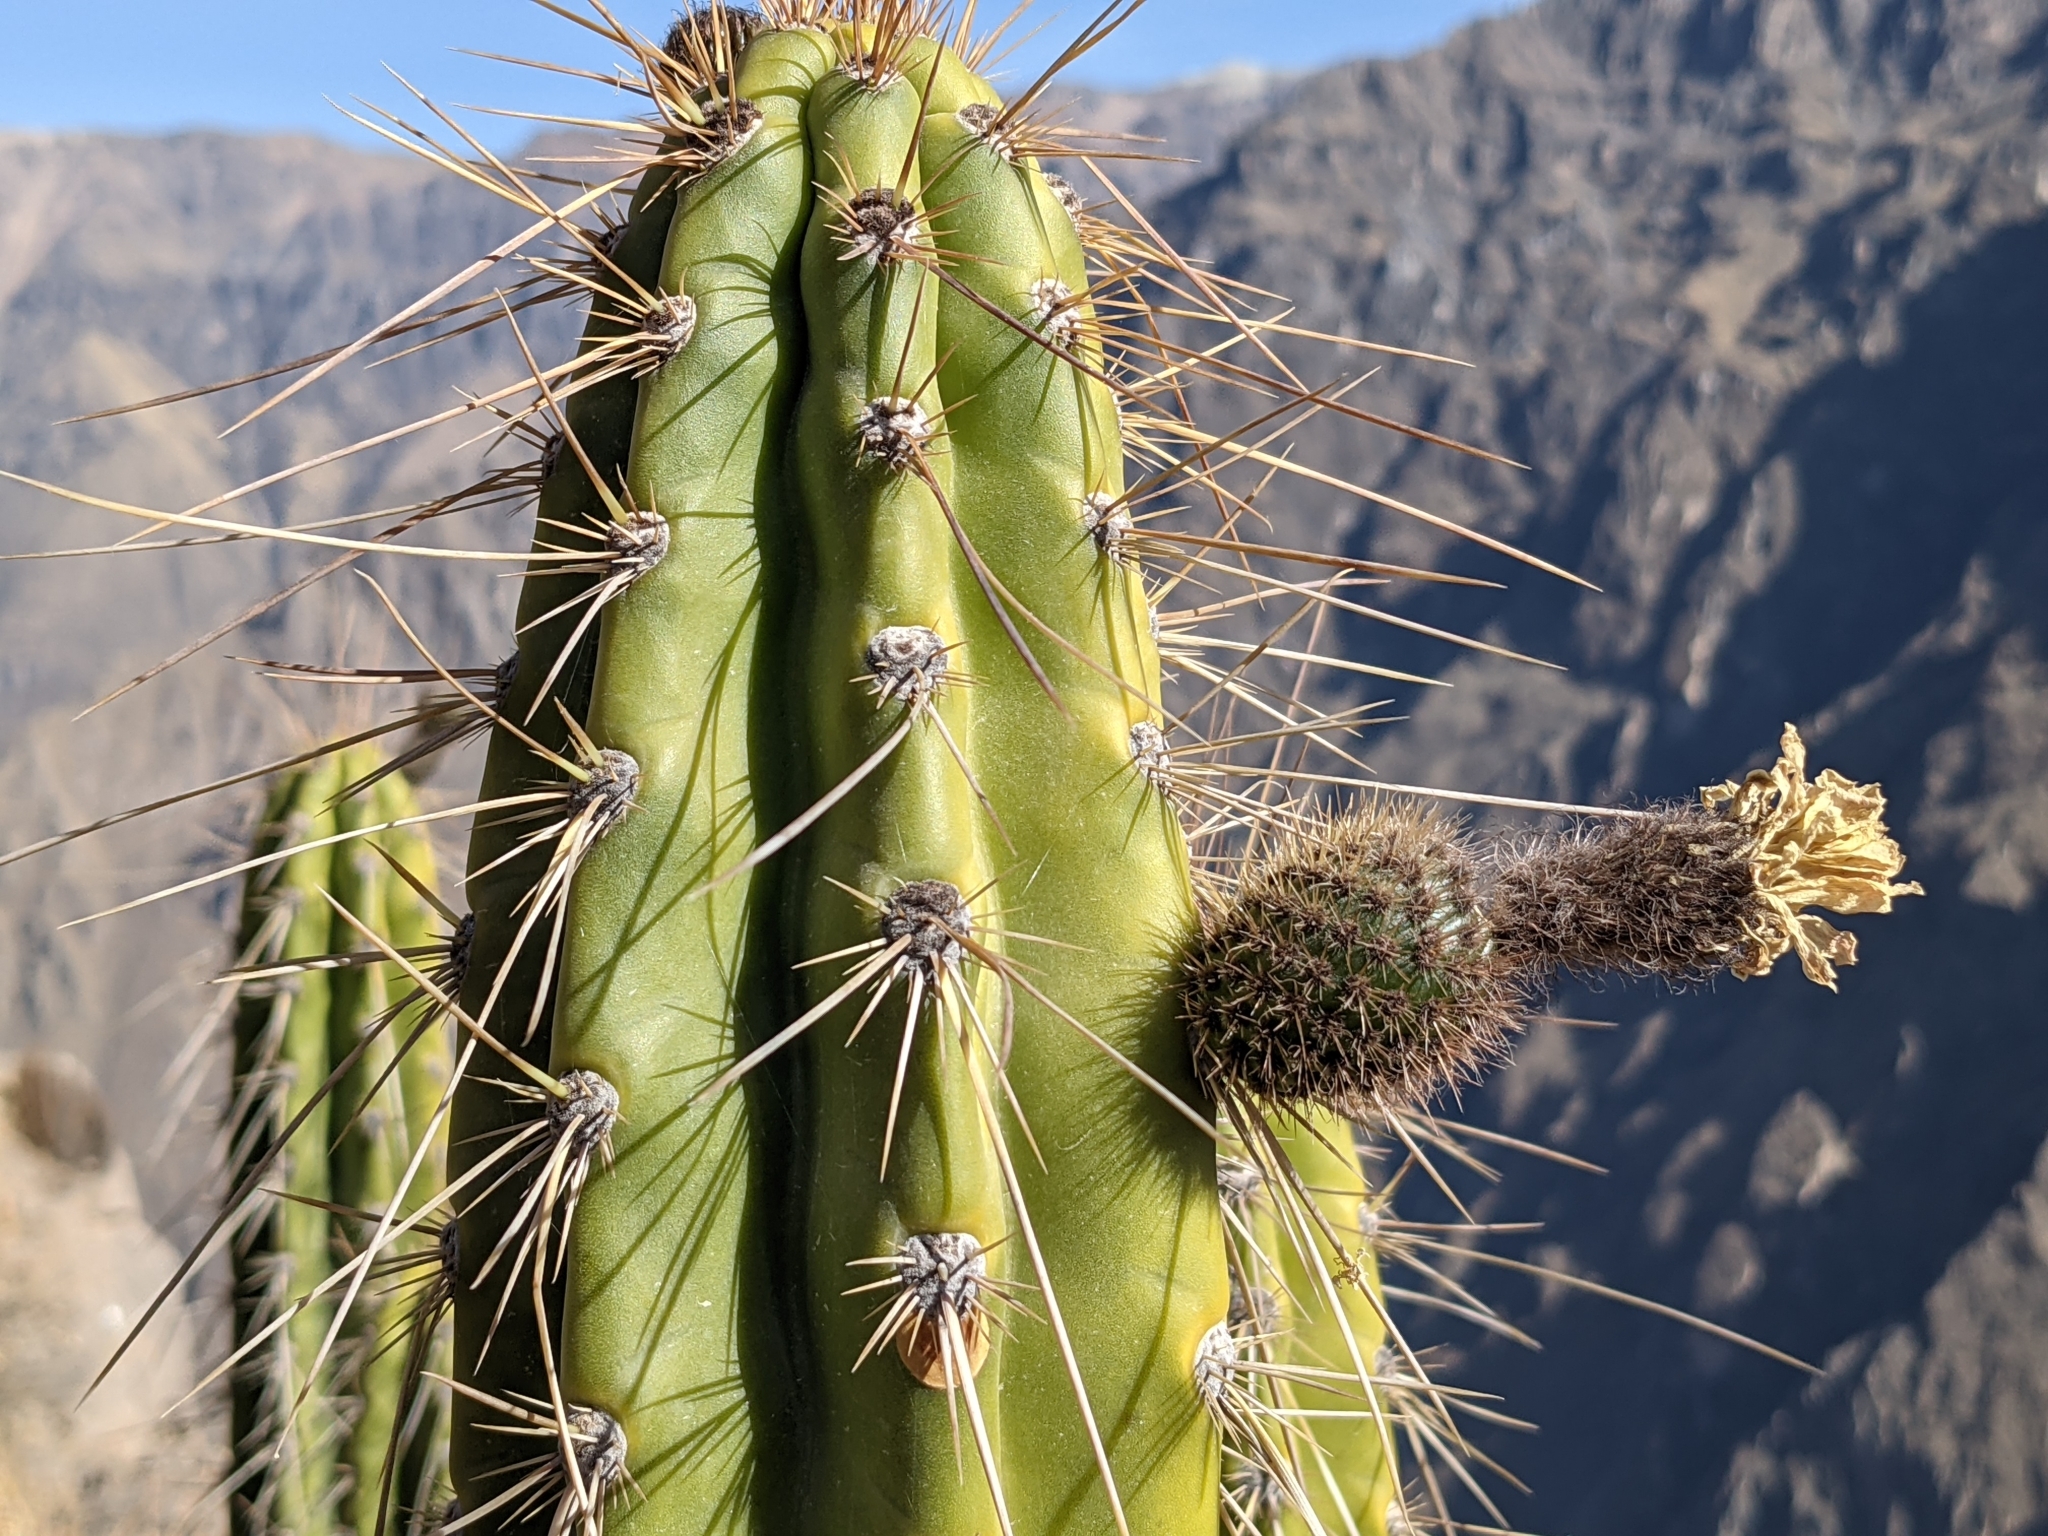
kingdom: Plantae
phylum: Tracheophyta
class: Magnoliopsida
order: Caryophyllales
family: Cactaceae
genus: Corryocactus
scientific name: Corryocactus brevistylus
